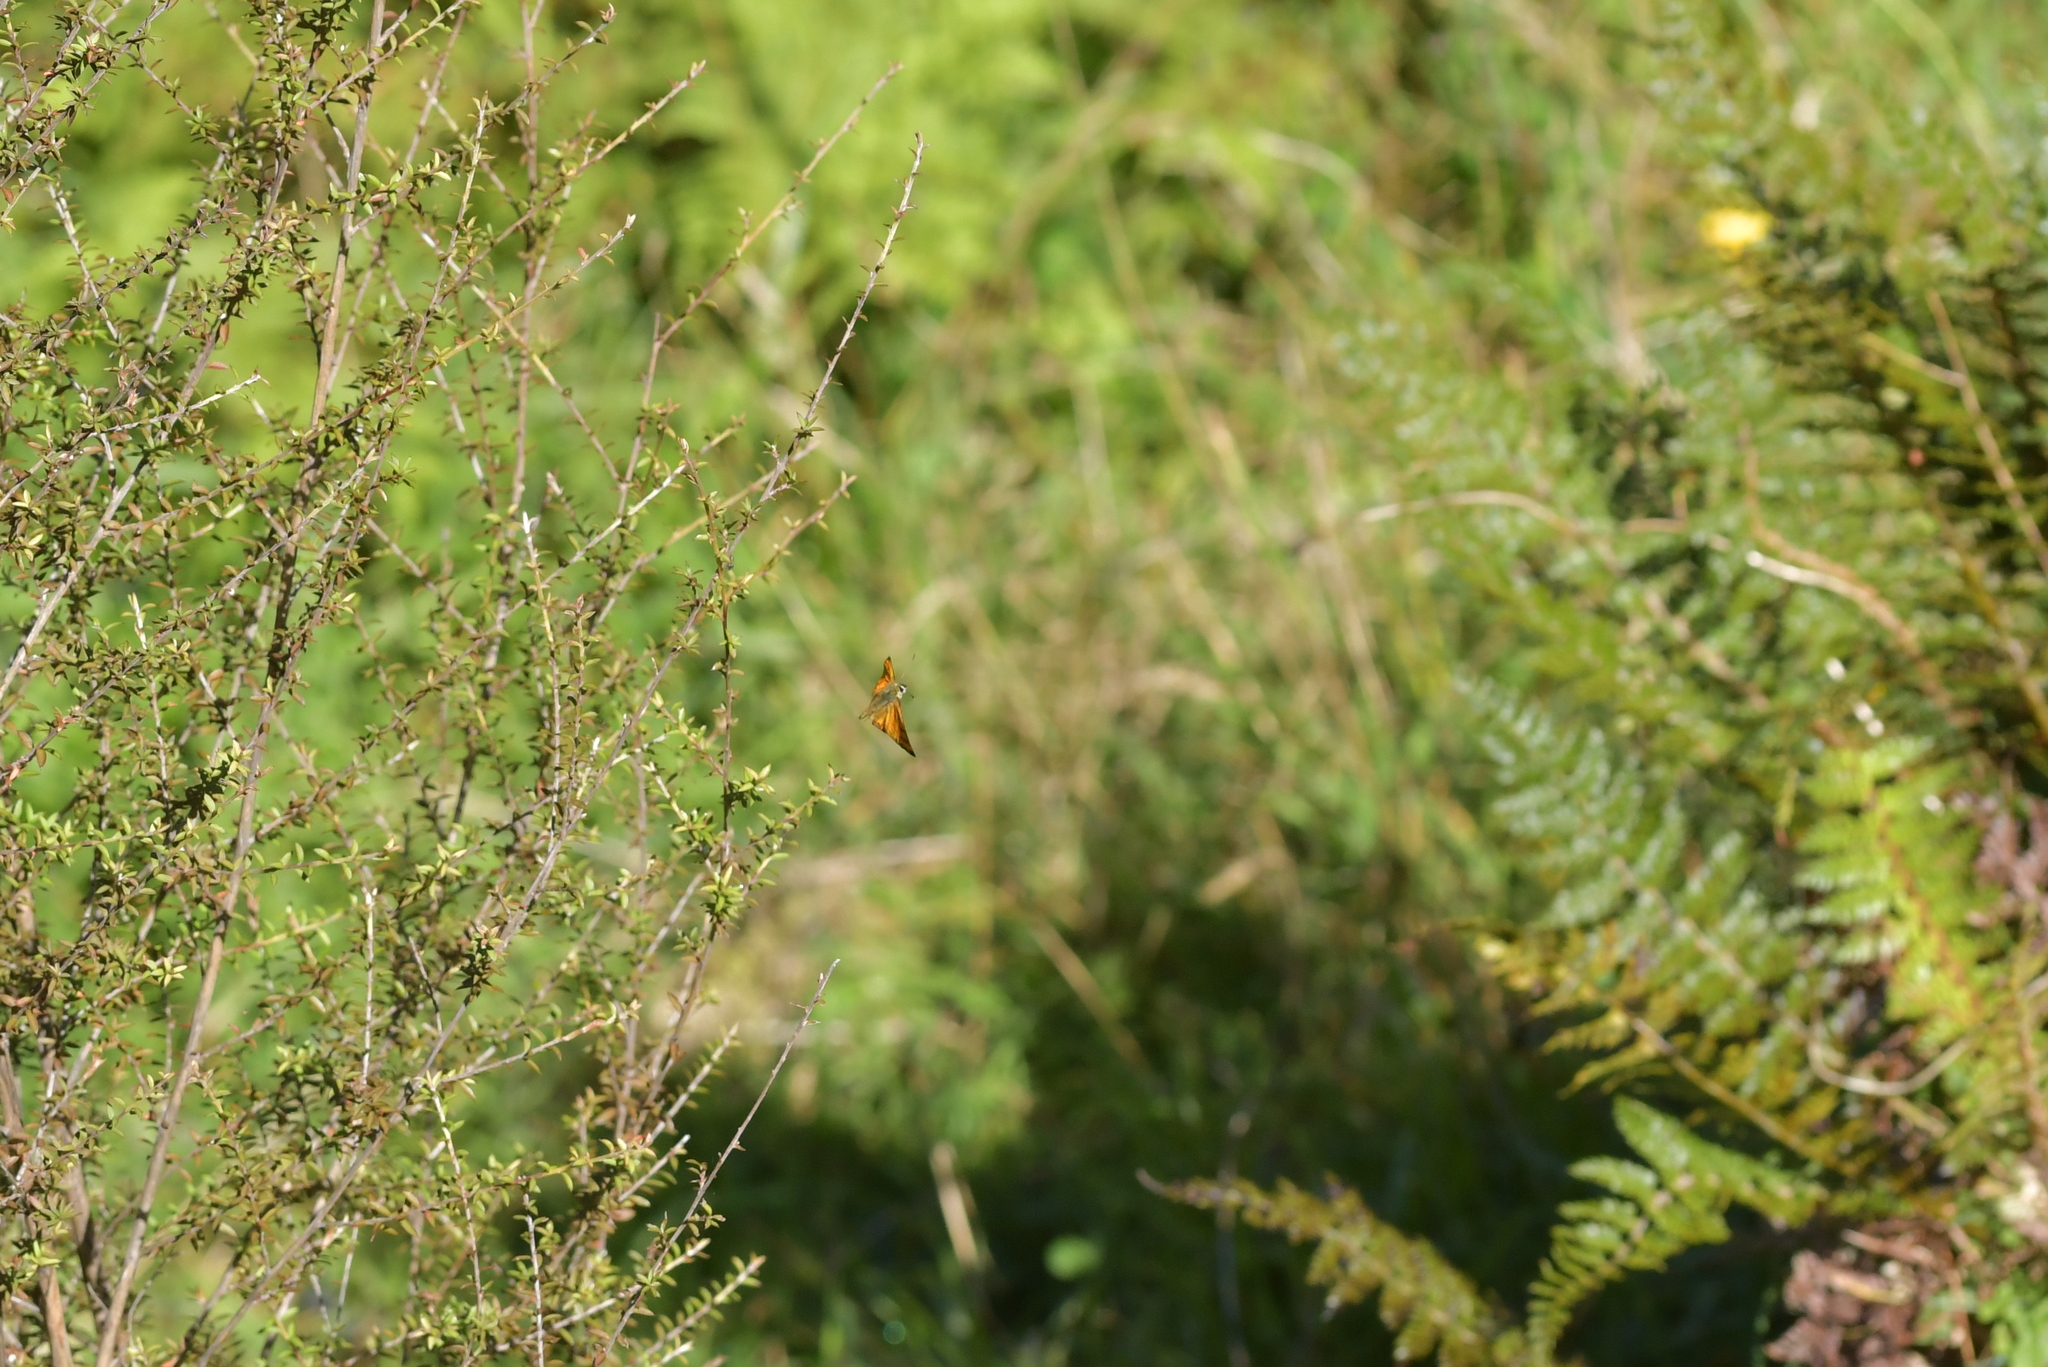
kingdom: Animalia
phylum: Arthropoda
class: Insecta
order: Lepidoptera
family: Lycaenidae
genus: Lycaena
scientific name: Lycaena salustius
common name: North island coastal copper
